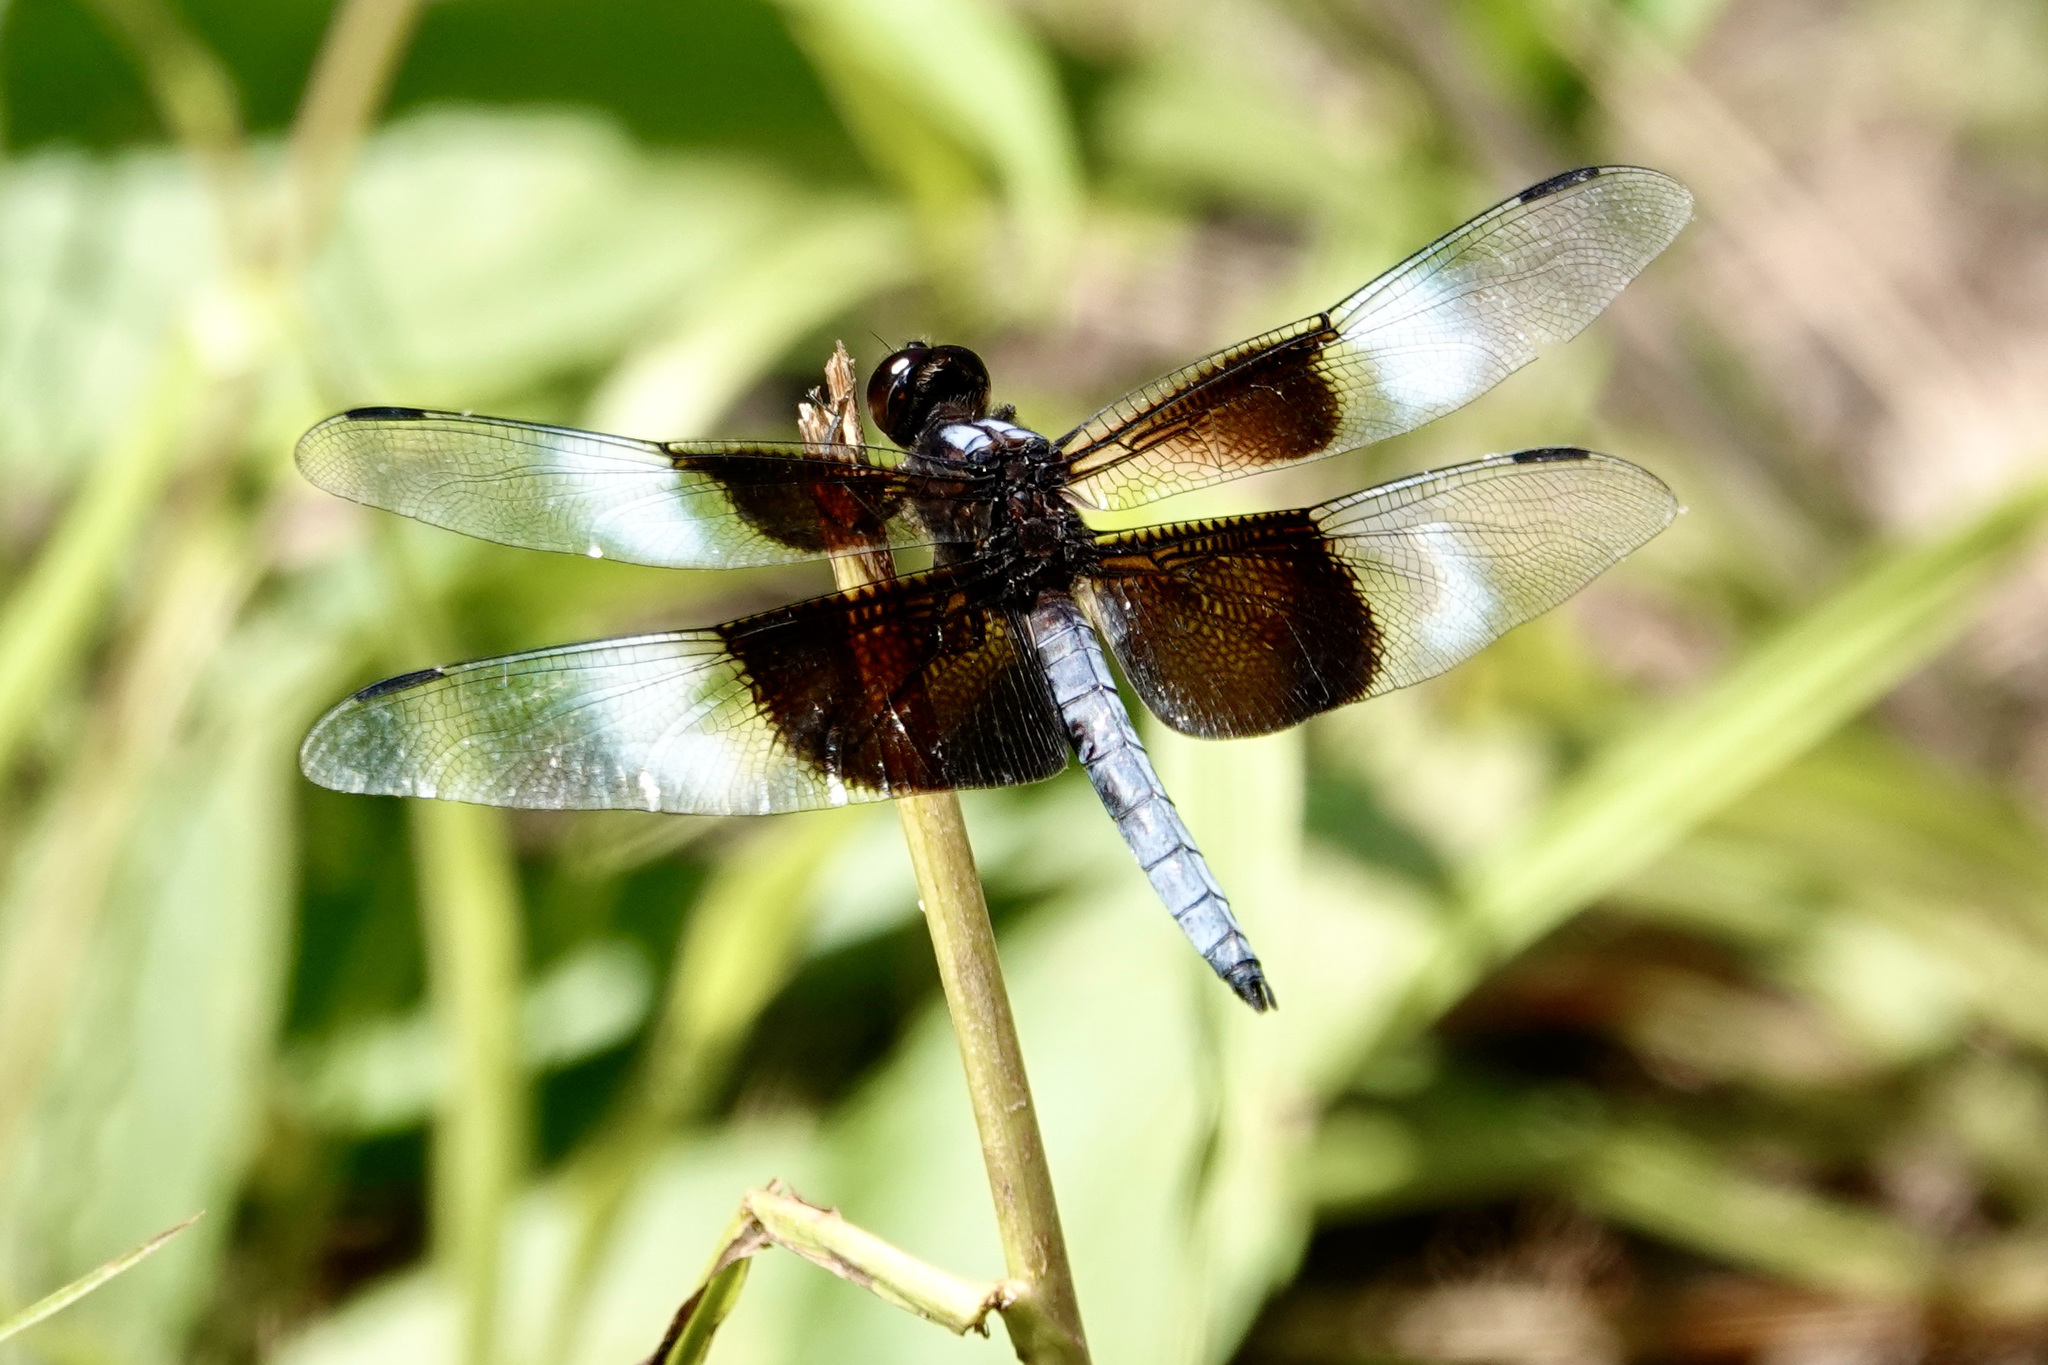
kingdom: Animalia
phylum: Arthropoda
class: Insecta
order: Odonata
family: Libellulidae
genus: Libellula
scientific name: Libellula luctuosa
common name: Widow skimmer
